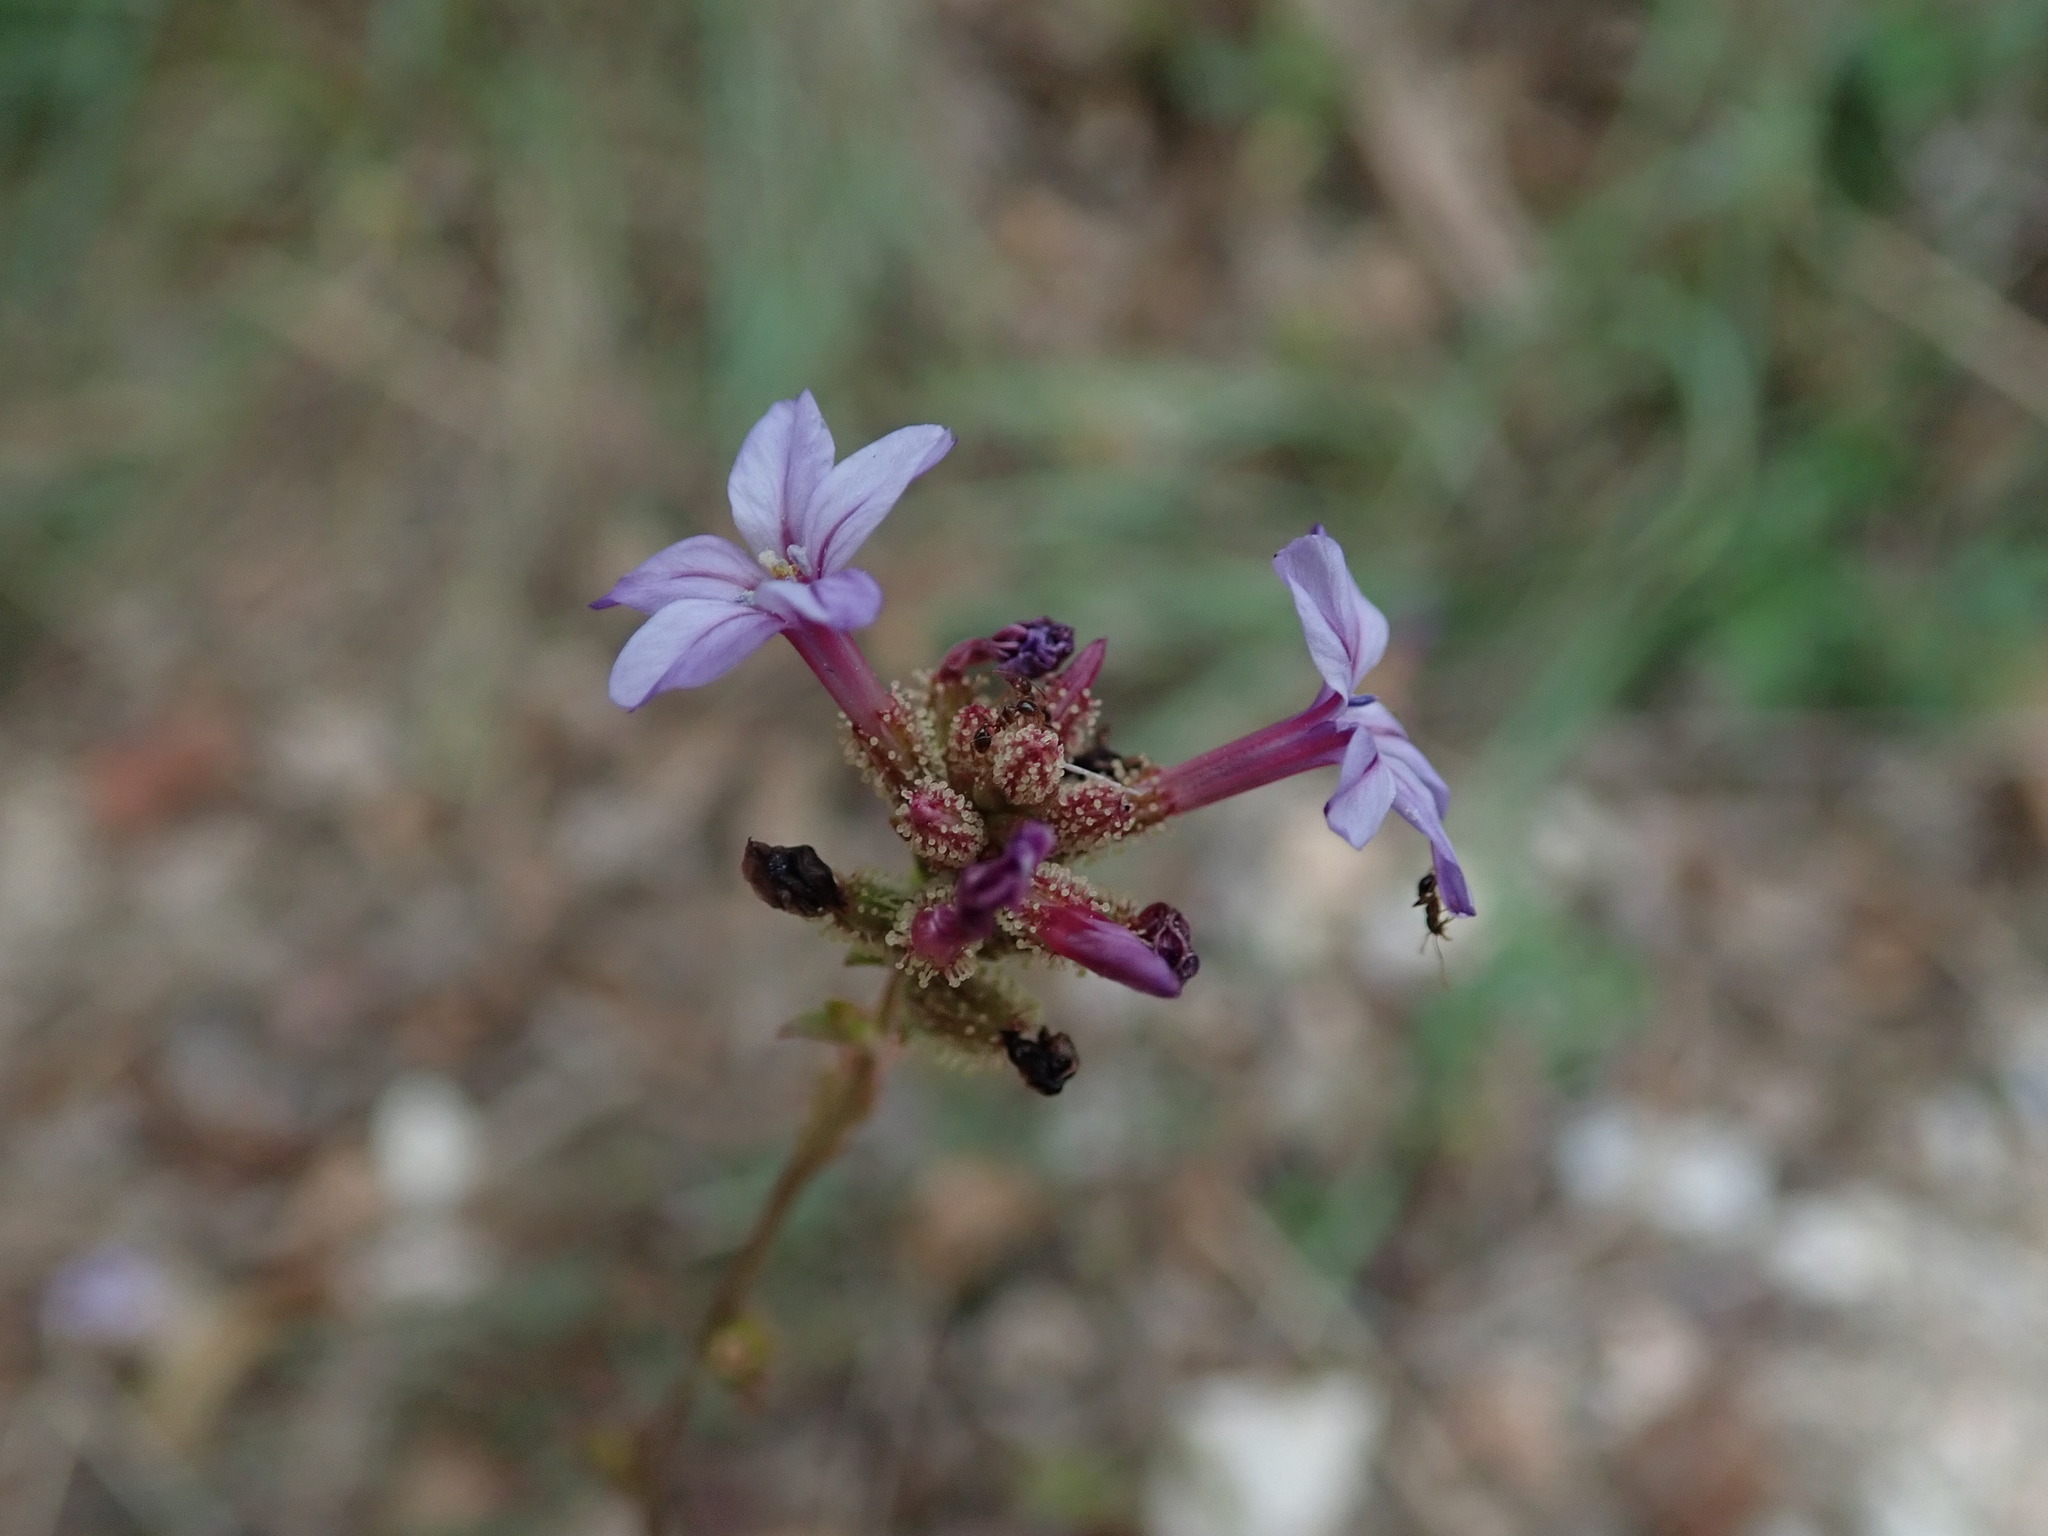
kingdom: Plantae
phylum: Tracheophyta
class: Magnoliopsida
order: Caryophyllales
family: Plumbaginaceae
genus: Plumbago
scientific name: Plumbago europaea
